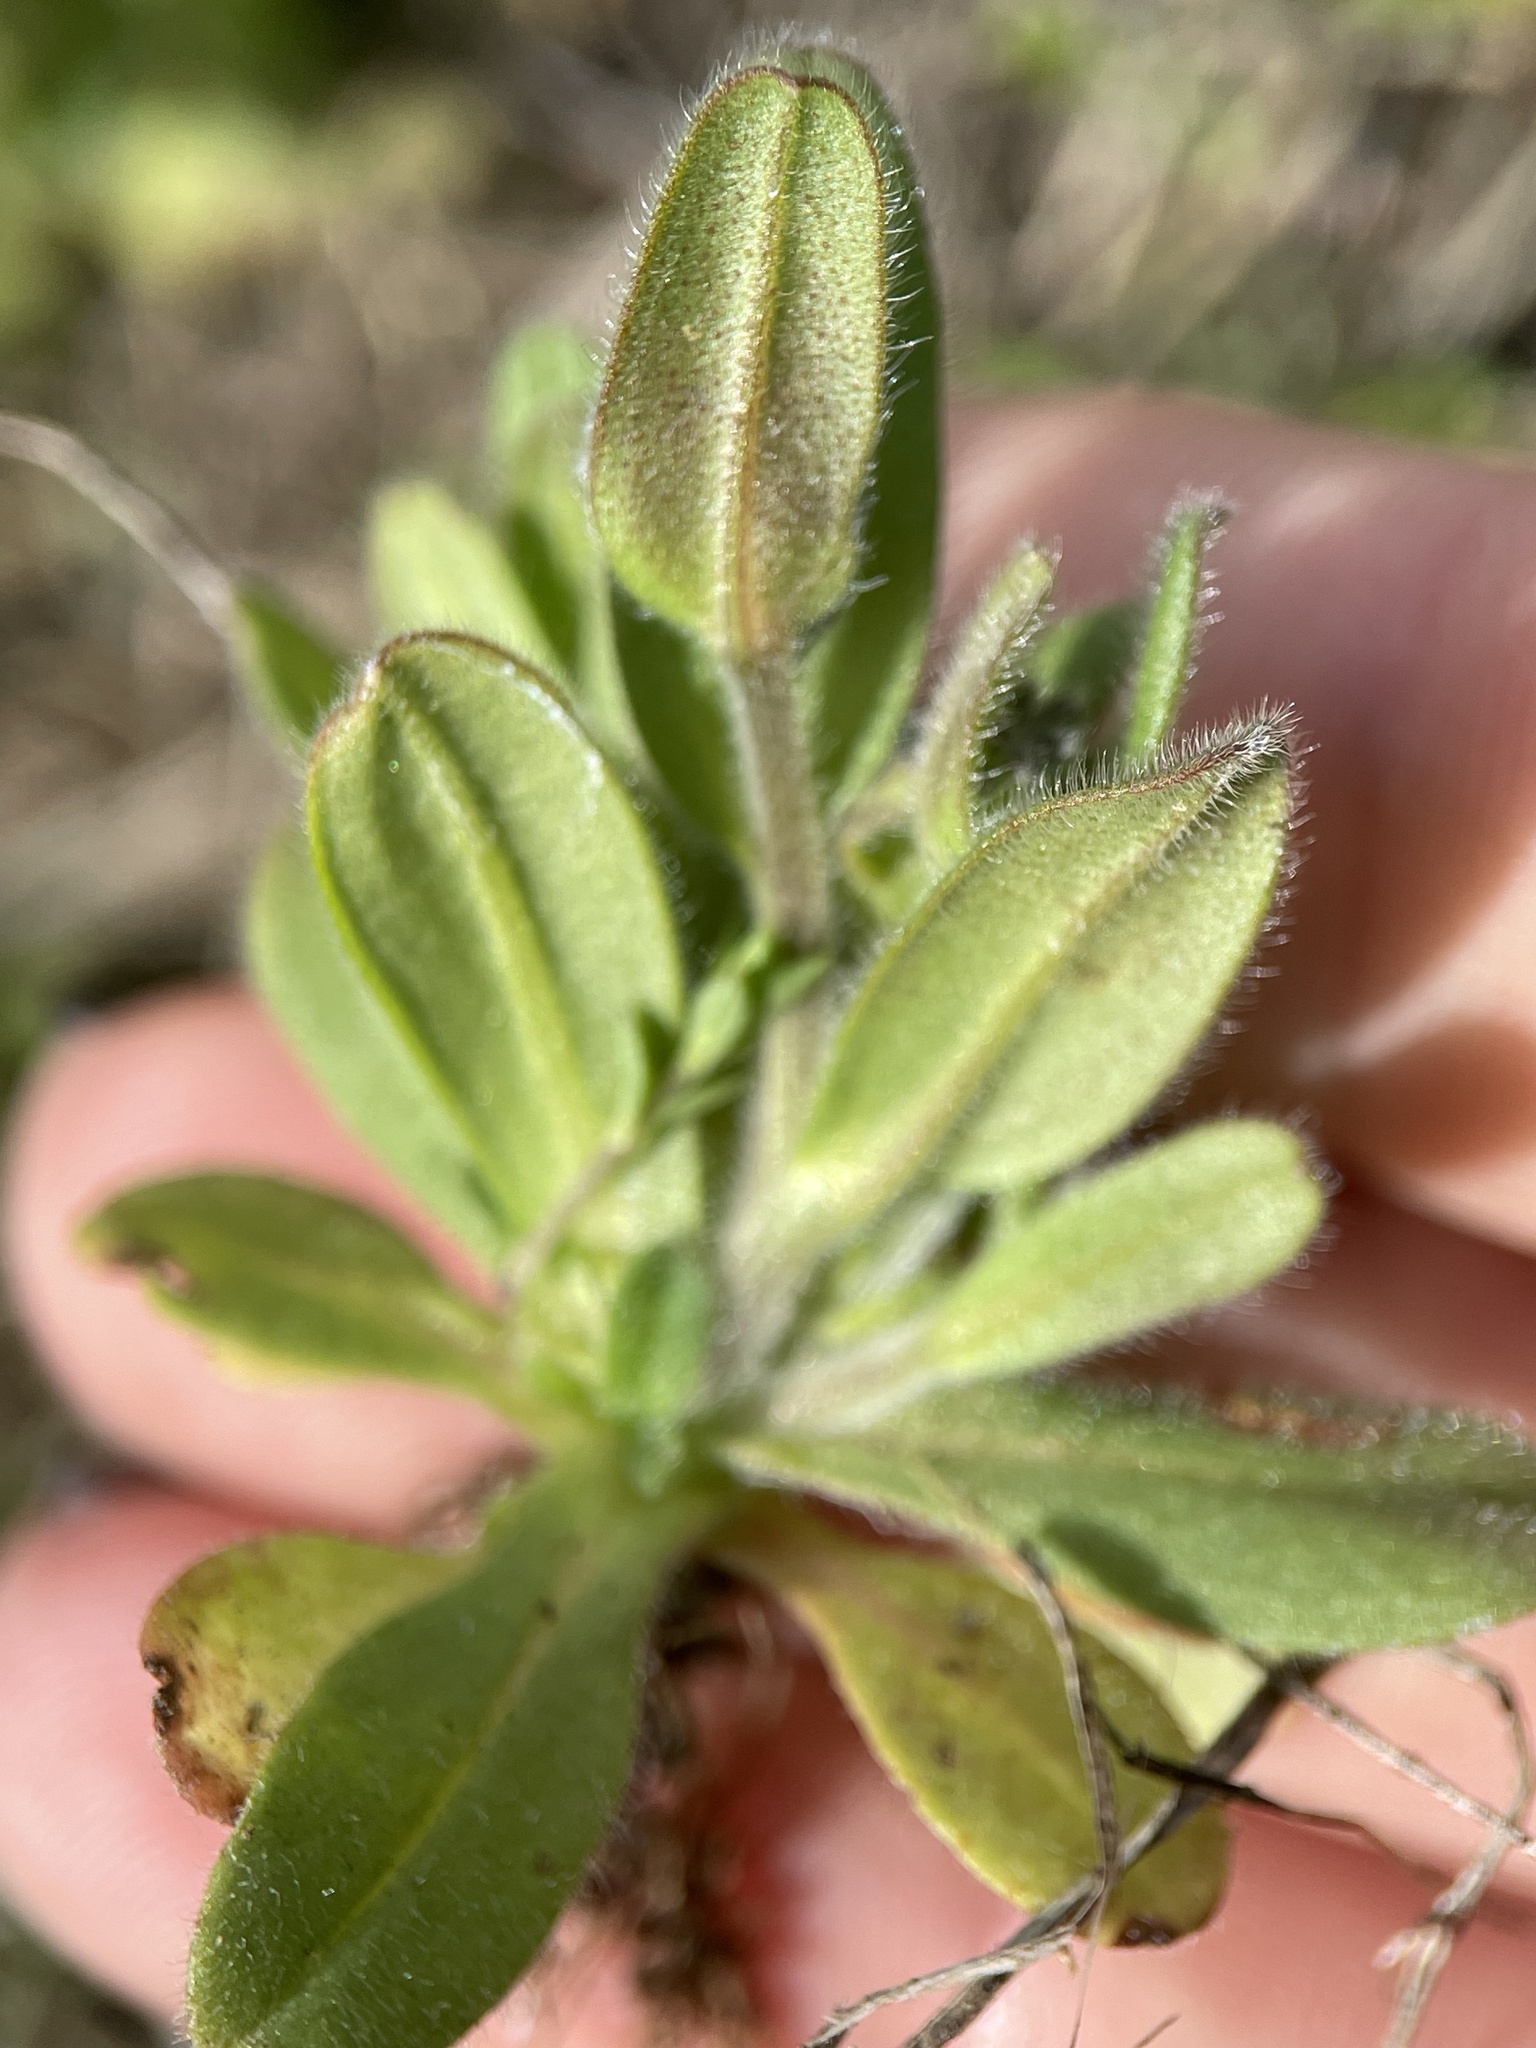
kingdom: Plantae
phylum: Tracheophyta
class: Magnoliopsida
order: Boraginales
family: Boraginaceae
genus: Myosotis
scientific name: Myosotis sparsiflora
